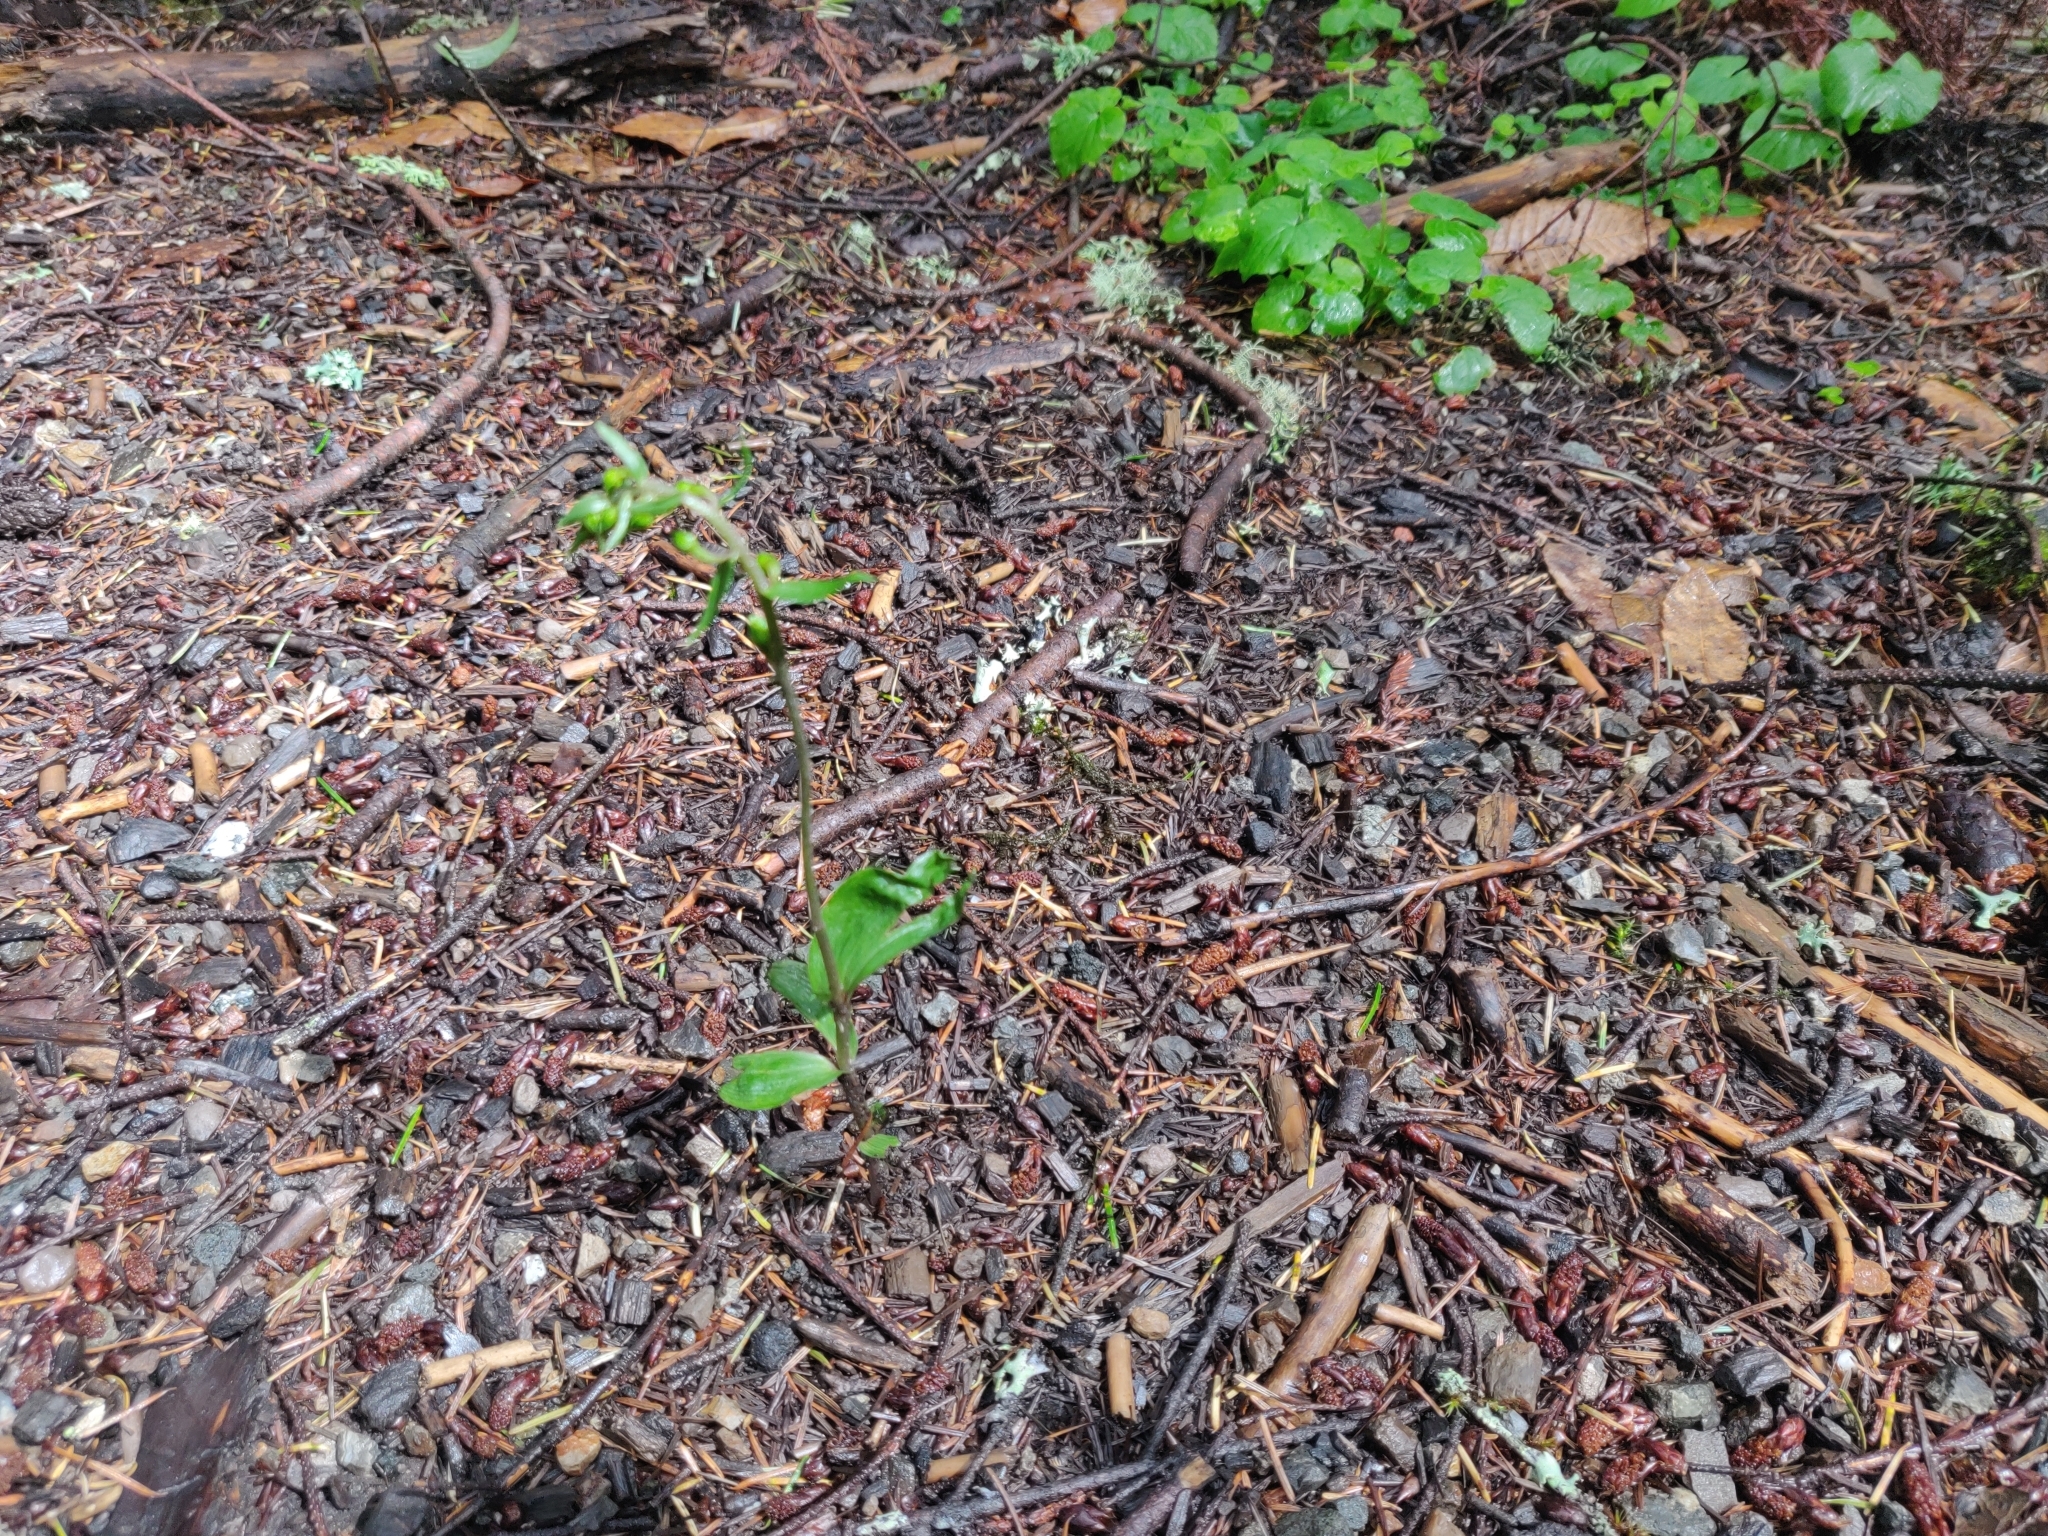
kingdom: Plantae
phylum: Tracheophyta
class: Liliopsida
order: Asparagales
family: Orchidaceae
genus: Epipactis
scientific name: Epipactis helleborine
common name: Broad-leaved helleborine
